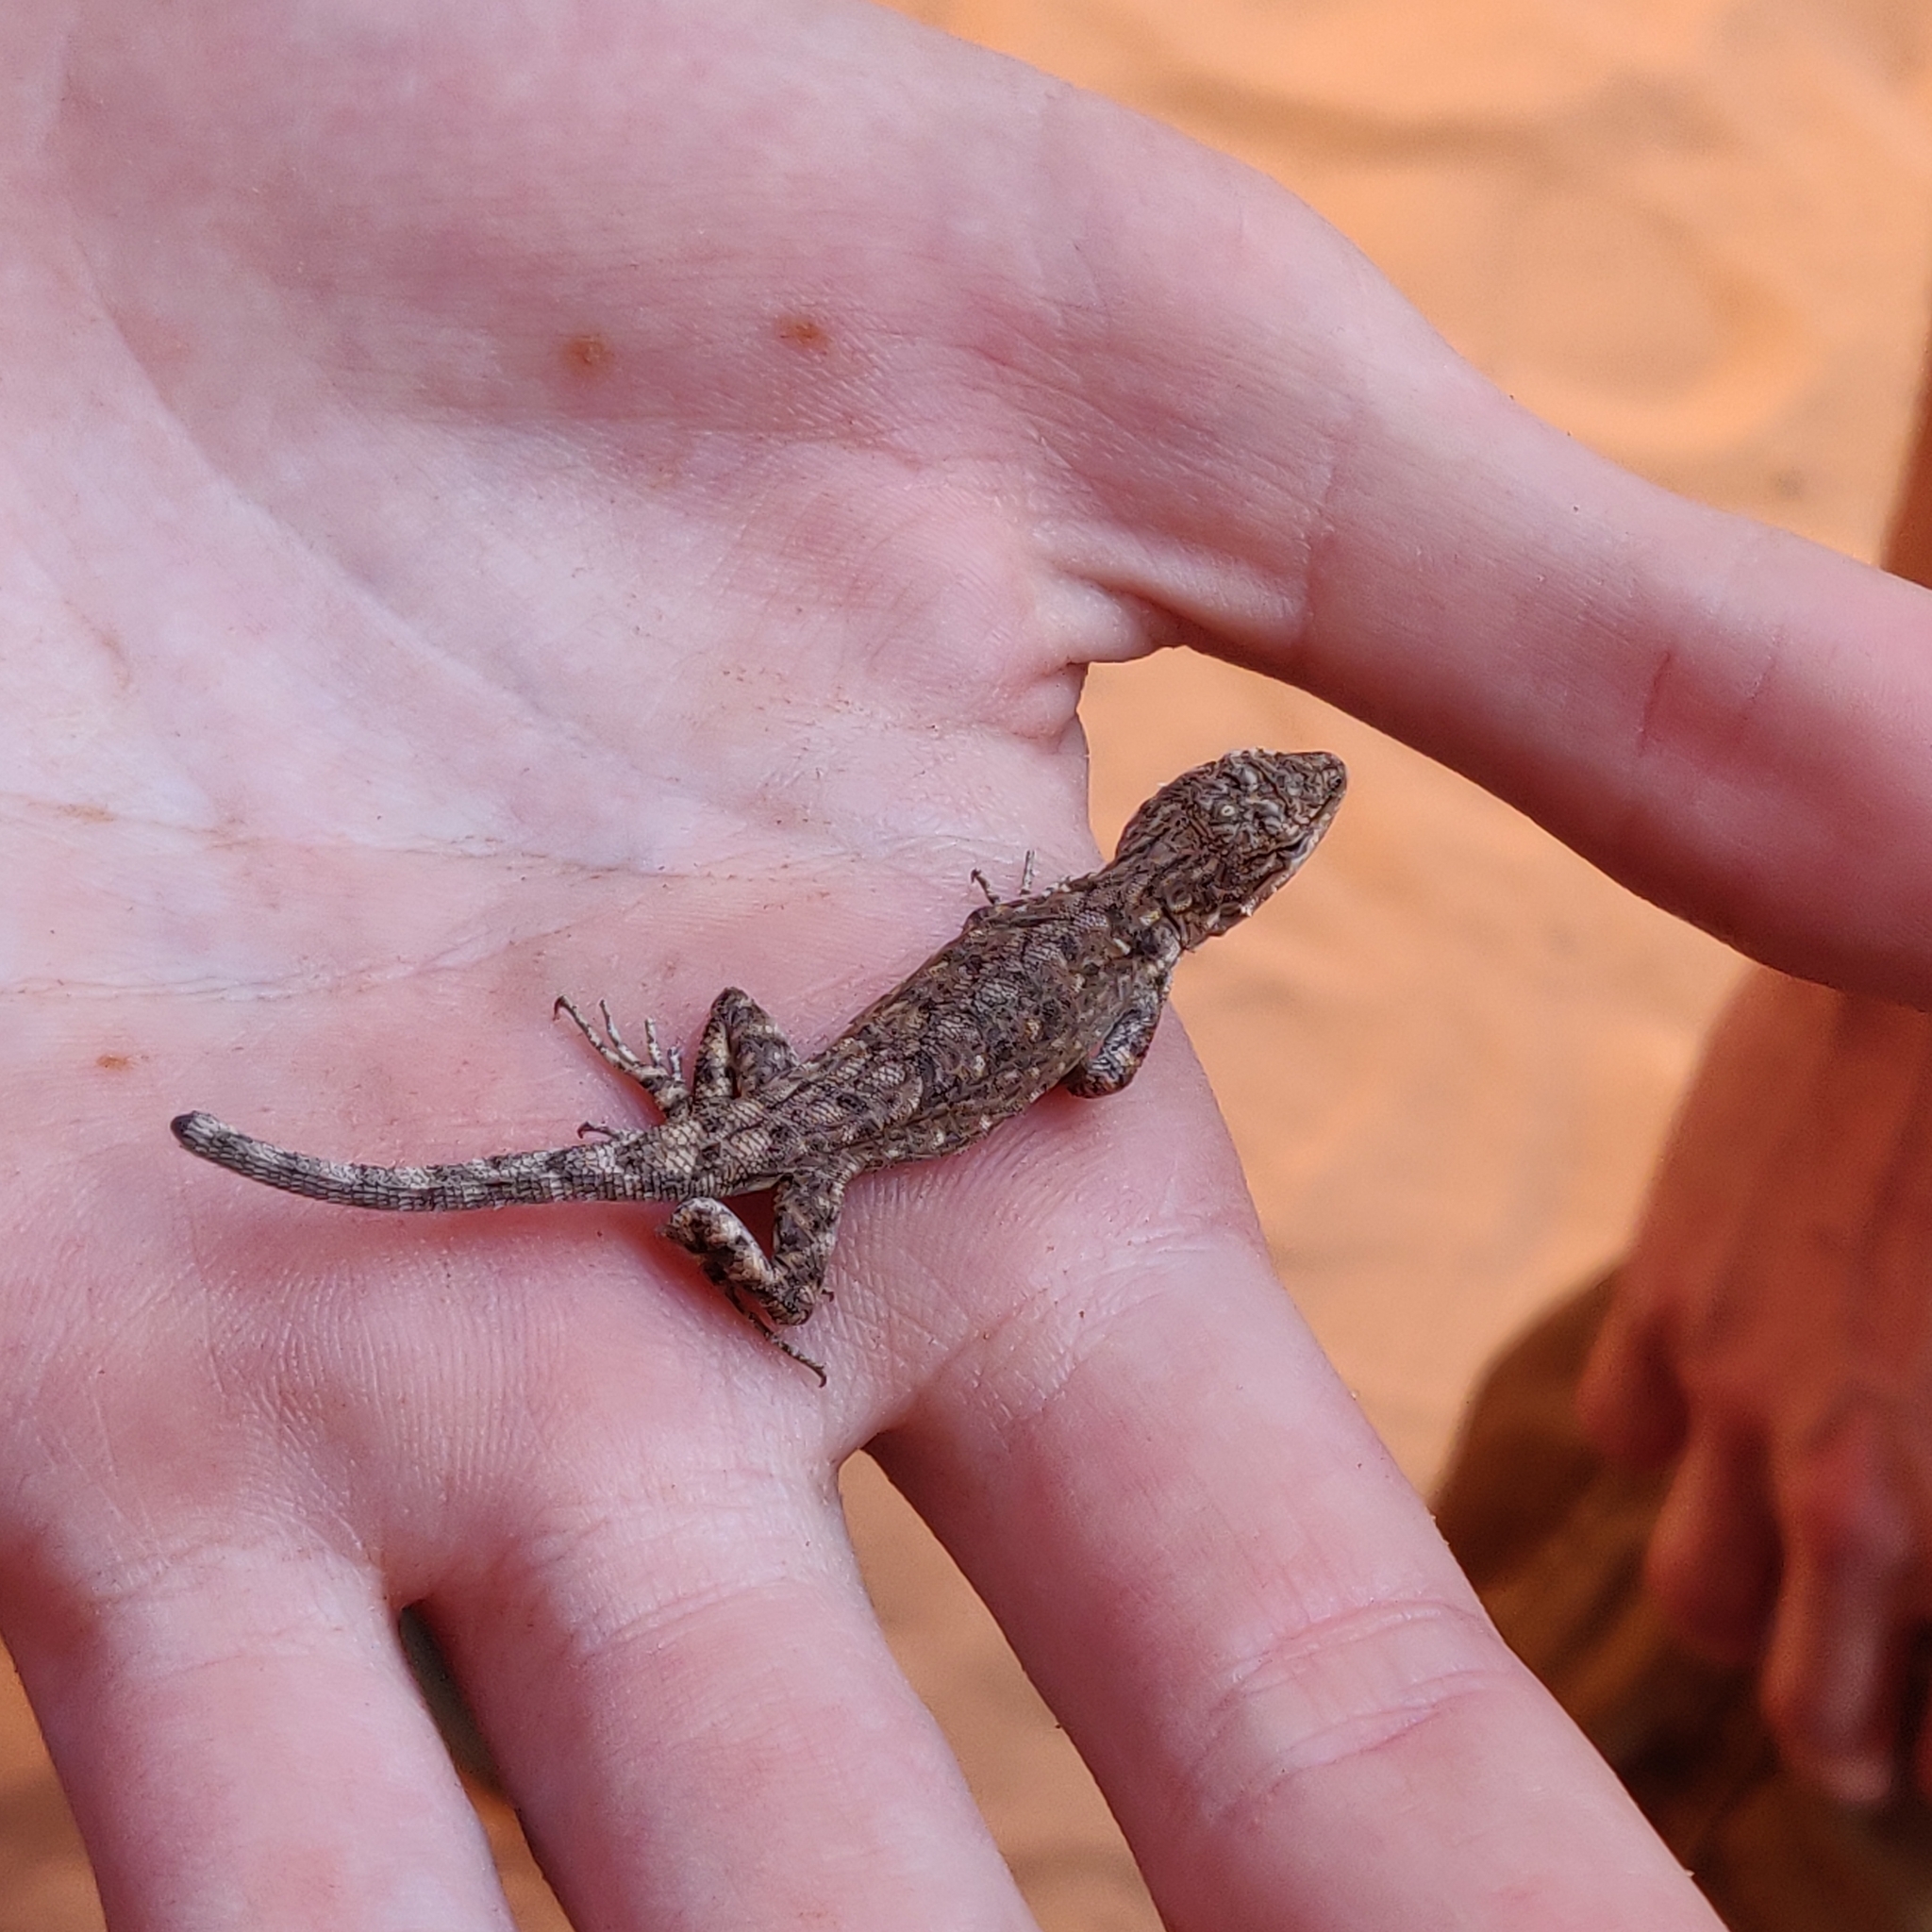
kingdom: Animalia
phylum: Chordata
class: Squamata
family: Phrynosomatidae
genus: Urosaurus
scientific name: Urosaurus ornatus
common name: Ornate tree lizard
